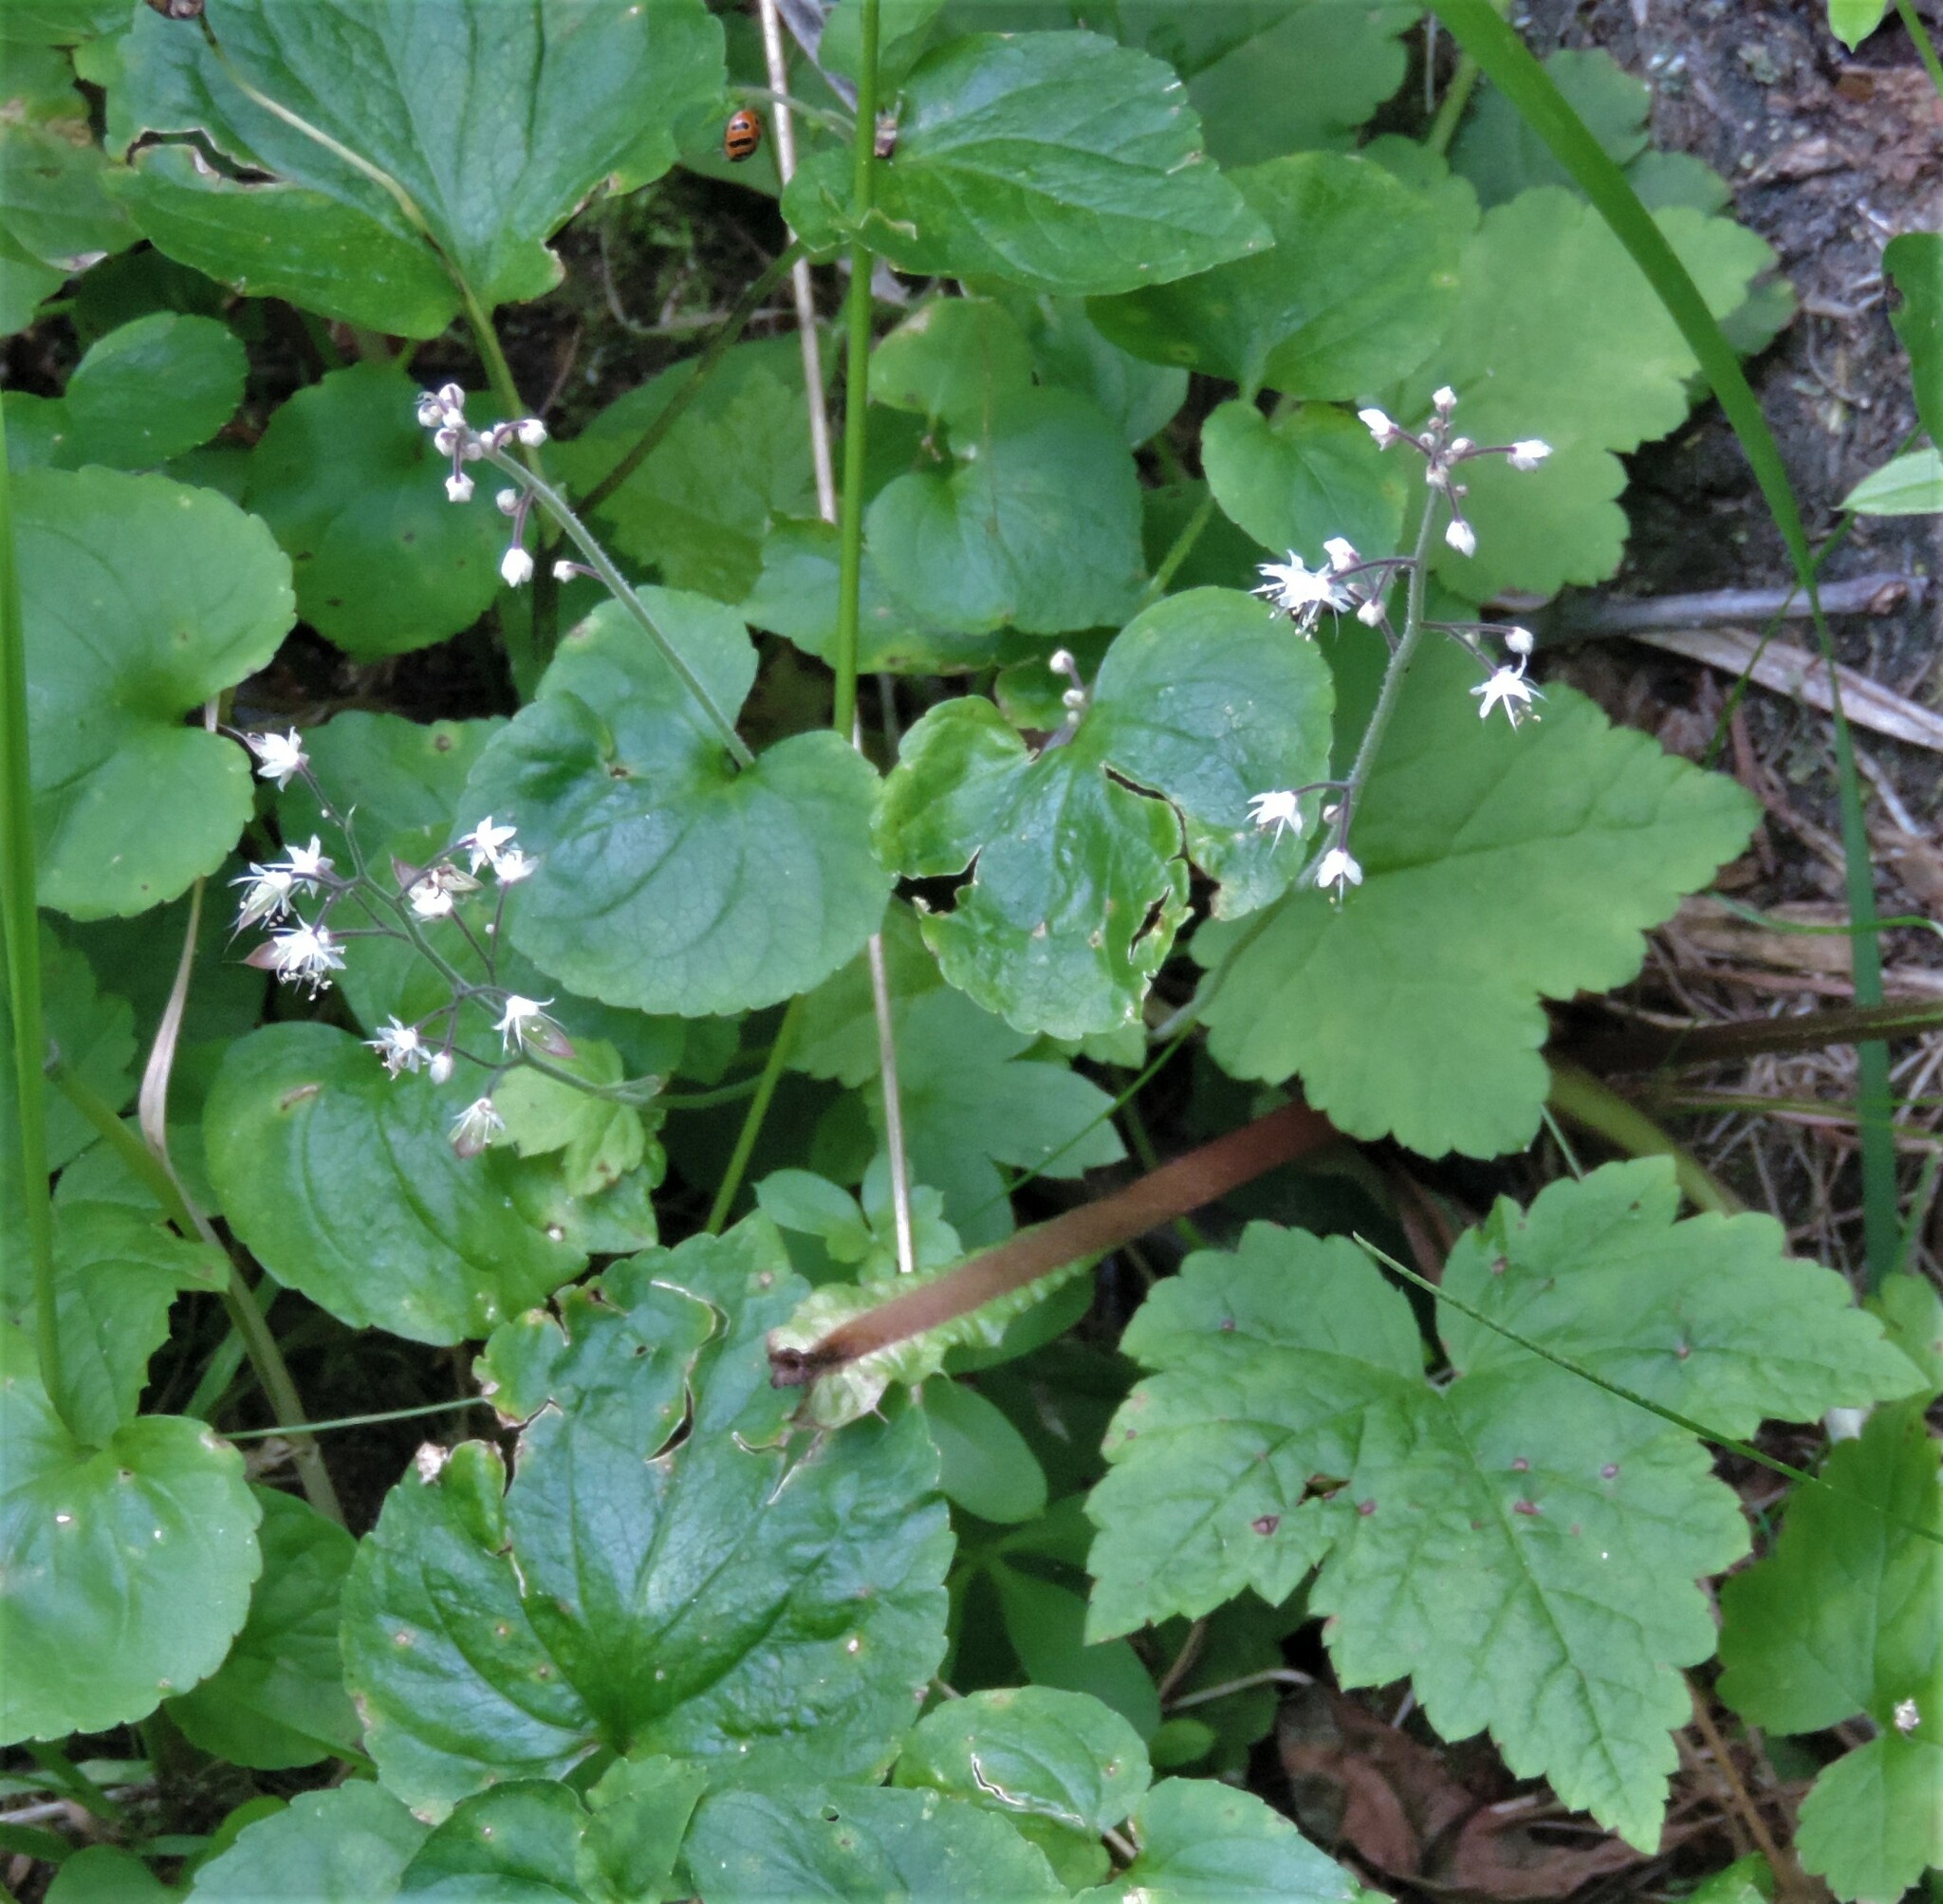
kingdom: Plantae
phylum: Tracheophyta
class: Magnoliopsida
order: Saxifragales
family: Saxifragaceae
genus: Tiarella
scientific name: Tiarella trifoliata
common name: Sugar-scoop
